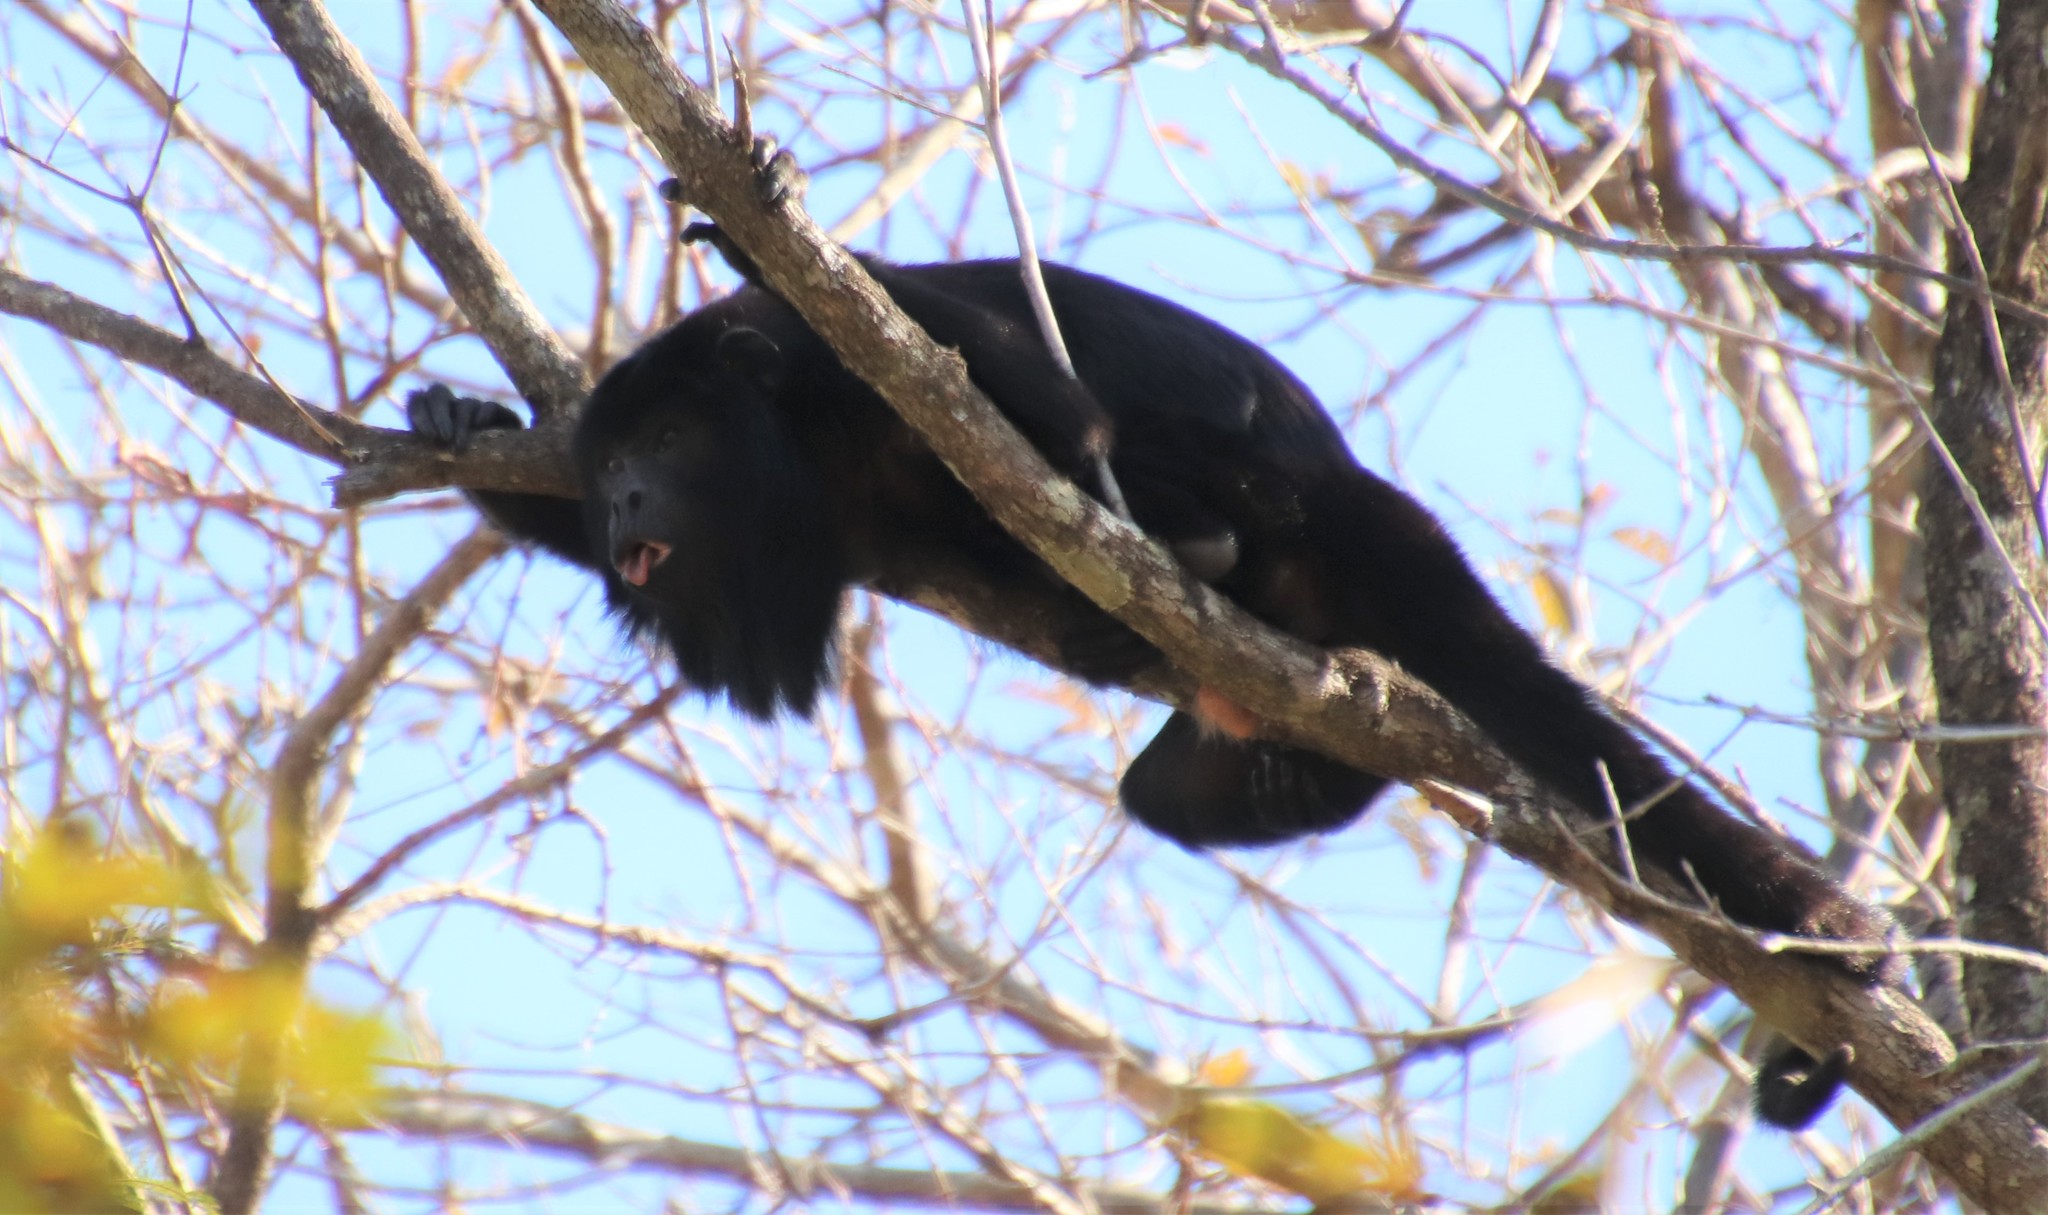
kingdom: Animalia
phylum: Chordata
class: Mammalia
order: Primates
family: Atelidae
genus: Alouatta
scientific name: Alouatta caraya
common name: Black howler
